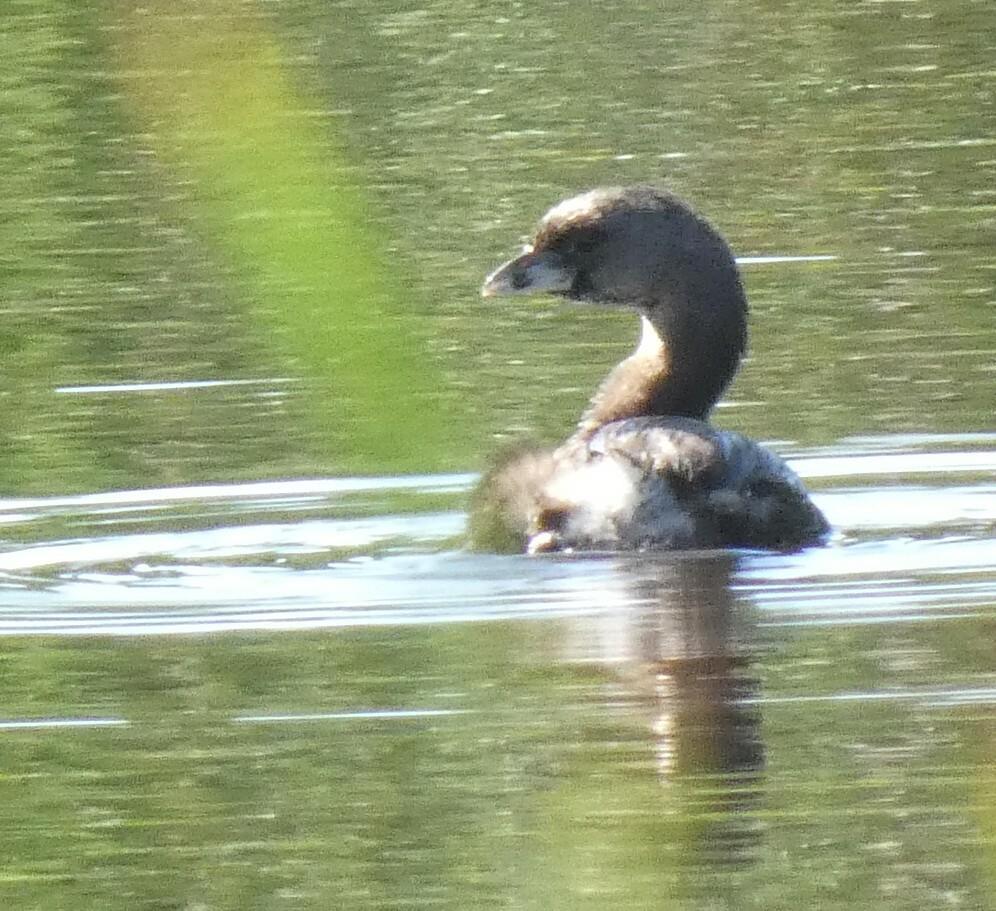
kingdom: Animalia
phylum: Chordata
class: Aves
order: Podicipediformes
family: Podicipedidae
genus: Podilymbus
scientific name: Podilymbus podiceps
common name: Pied-billed grebe
